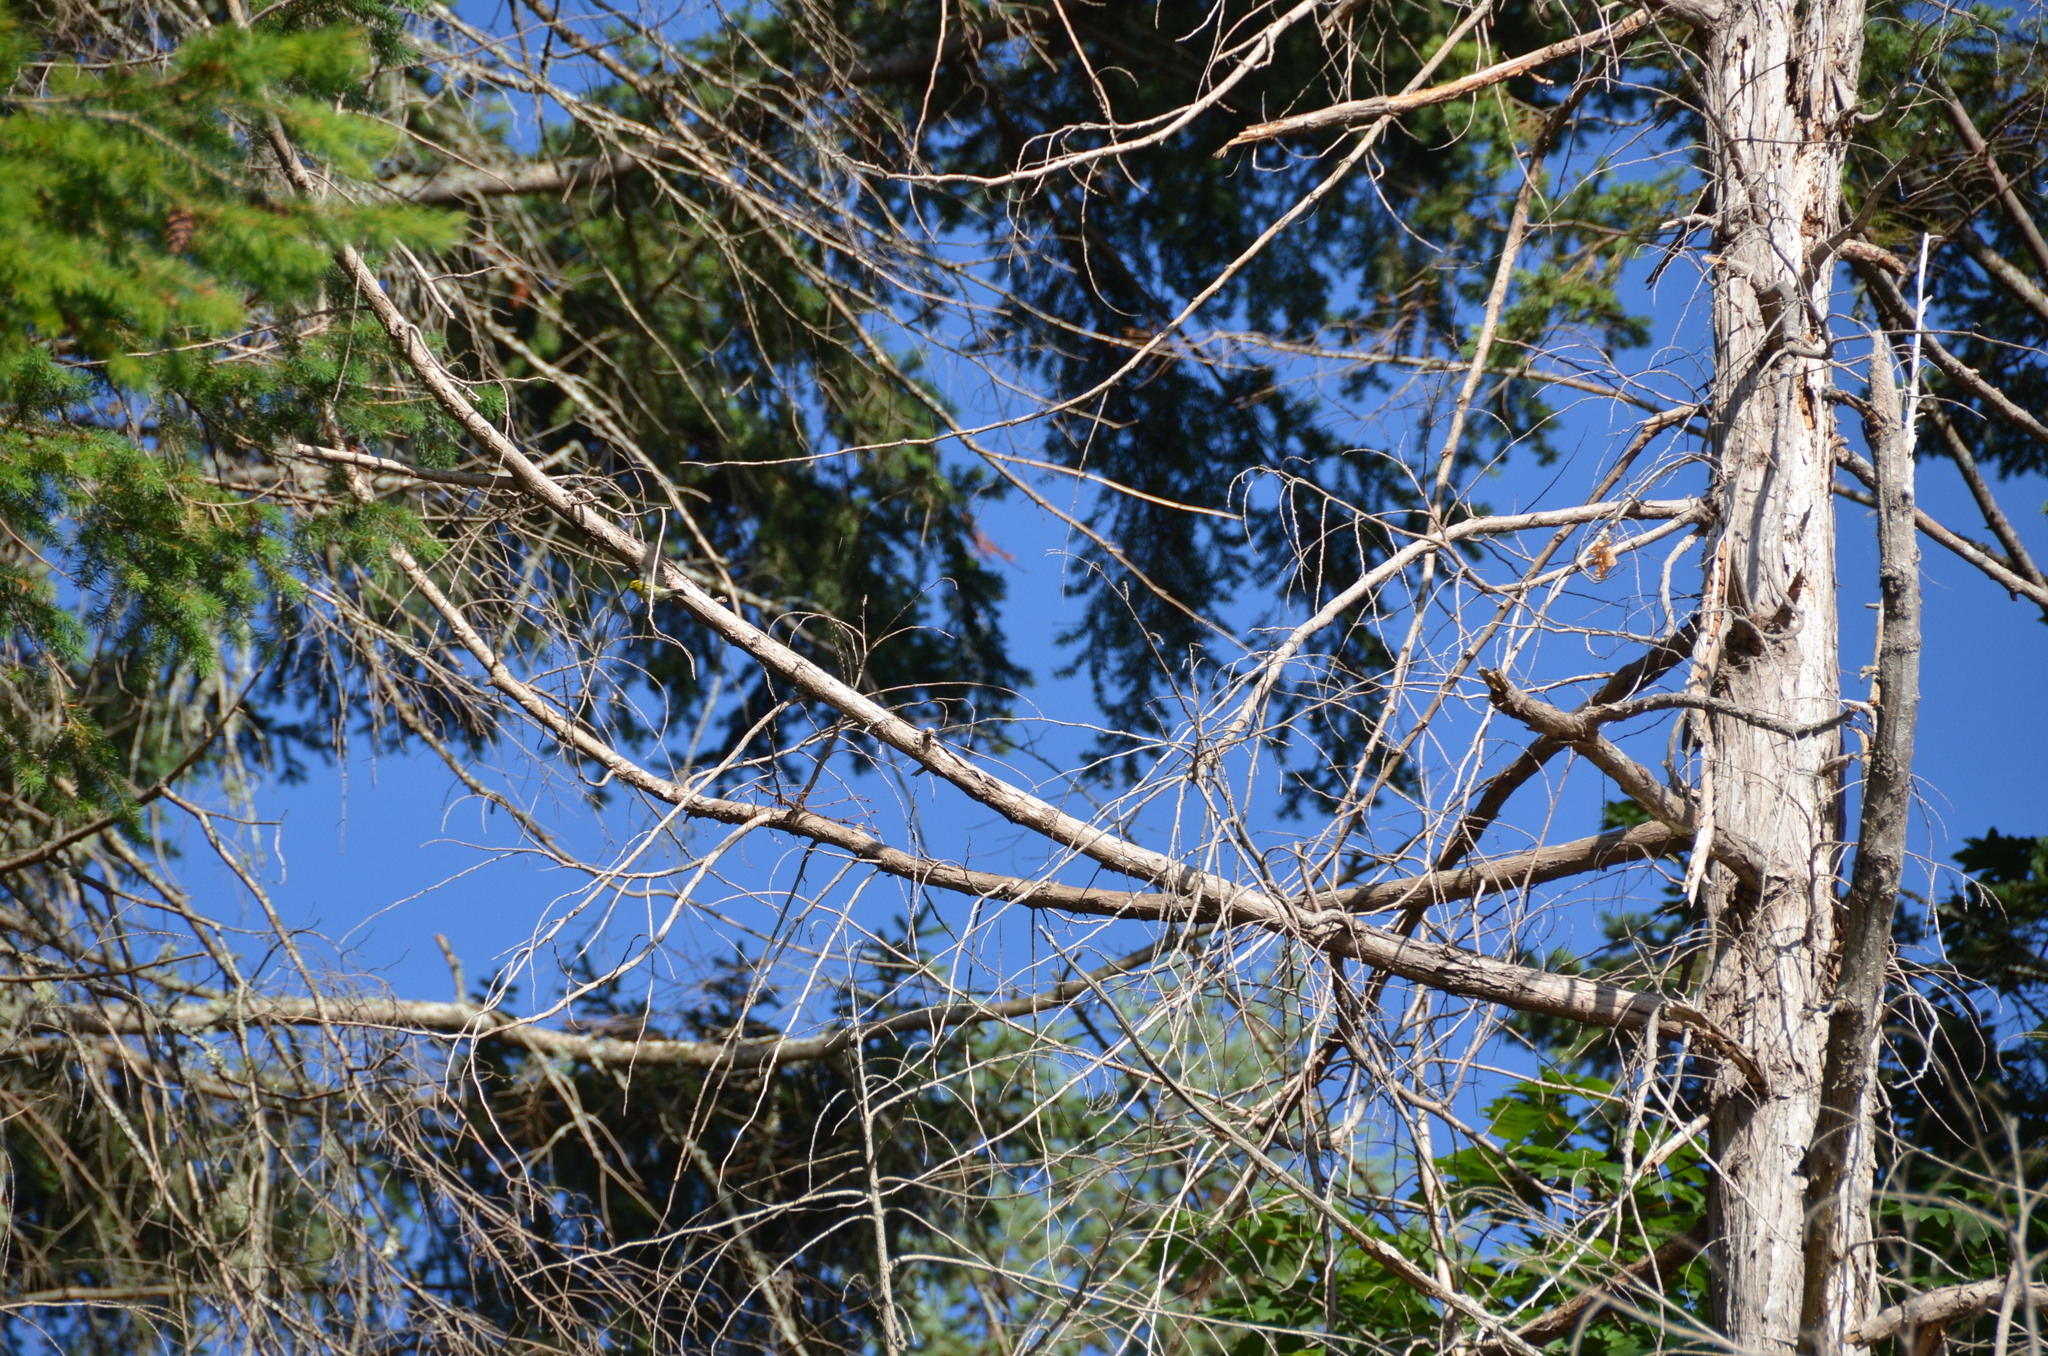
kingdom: Animalia
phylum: Chordata
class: Aves
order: Passeriformes
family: Parulidae
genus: Setophaga
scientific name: Setophaga townsendi
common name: Townsend's warbler
